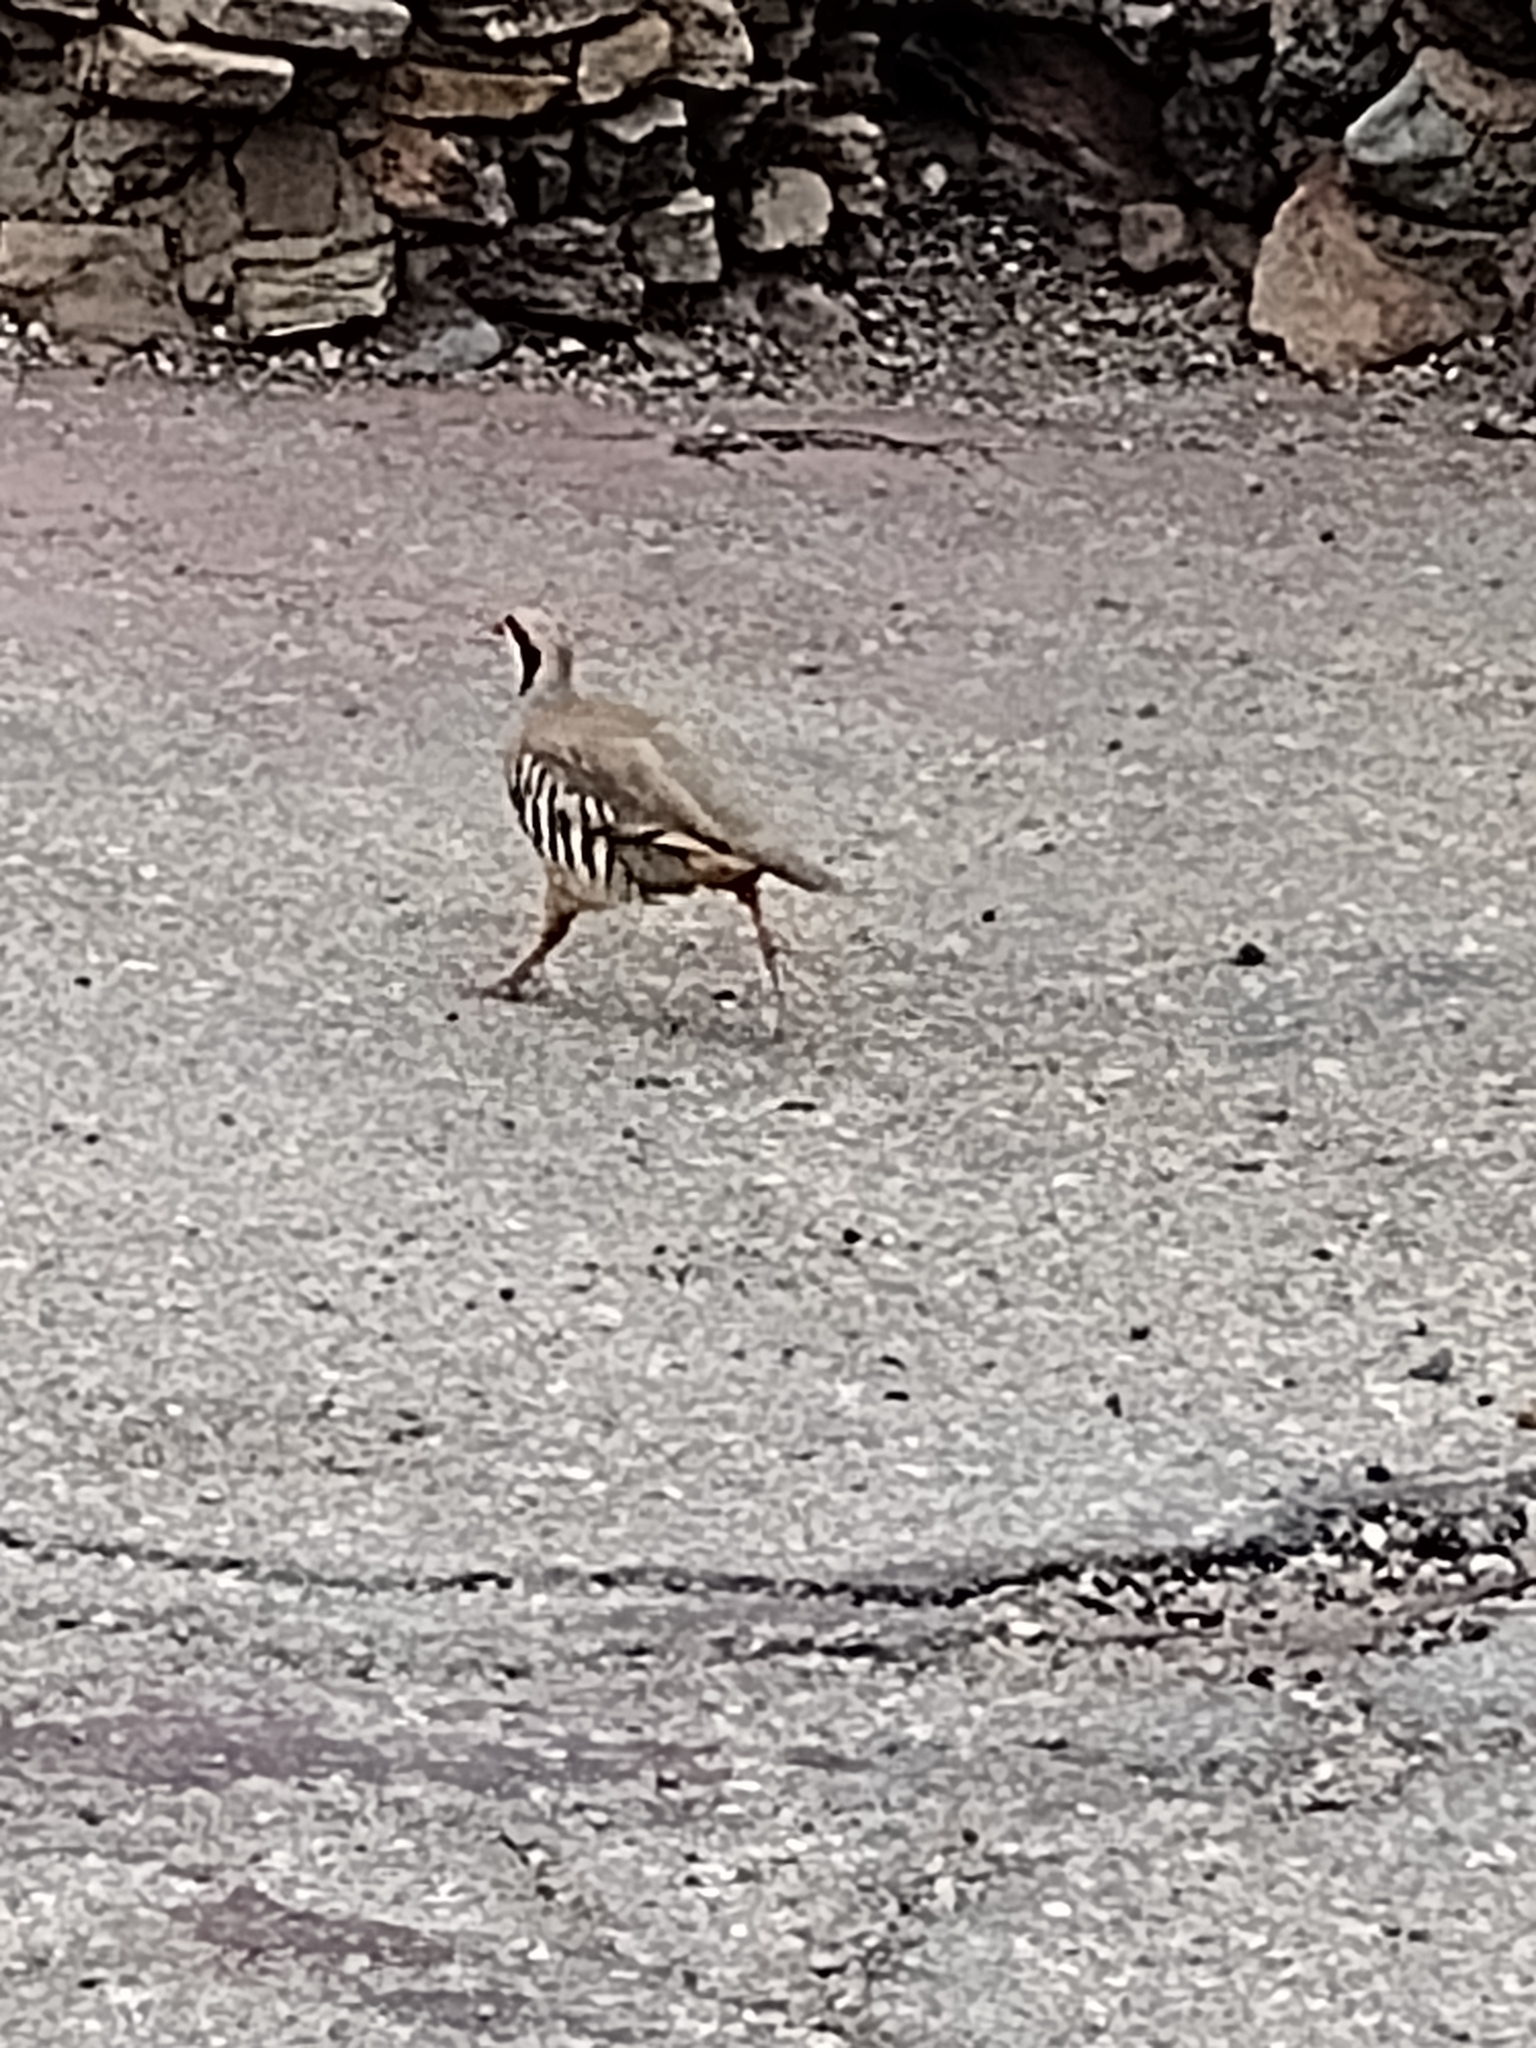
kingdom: Animalia
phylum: Chordata
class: Aves
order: Galliformes
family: Phasianidae
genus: Alectoris
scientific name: Alectoris chukar
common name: Chukar
